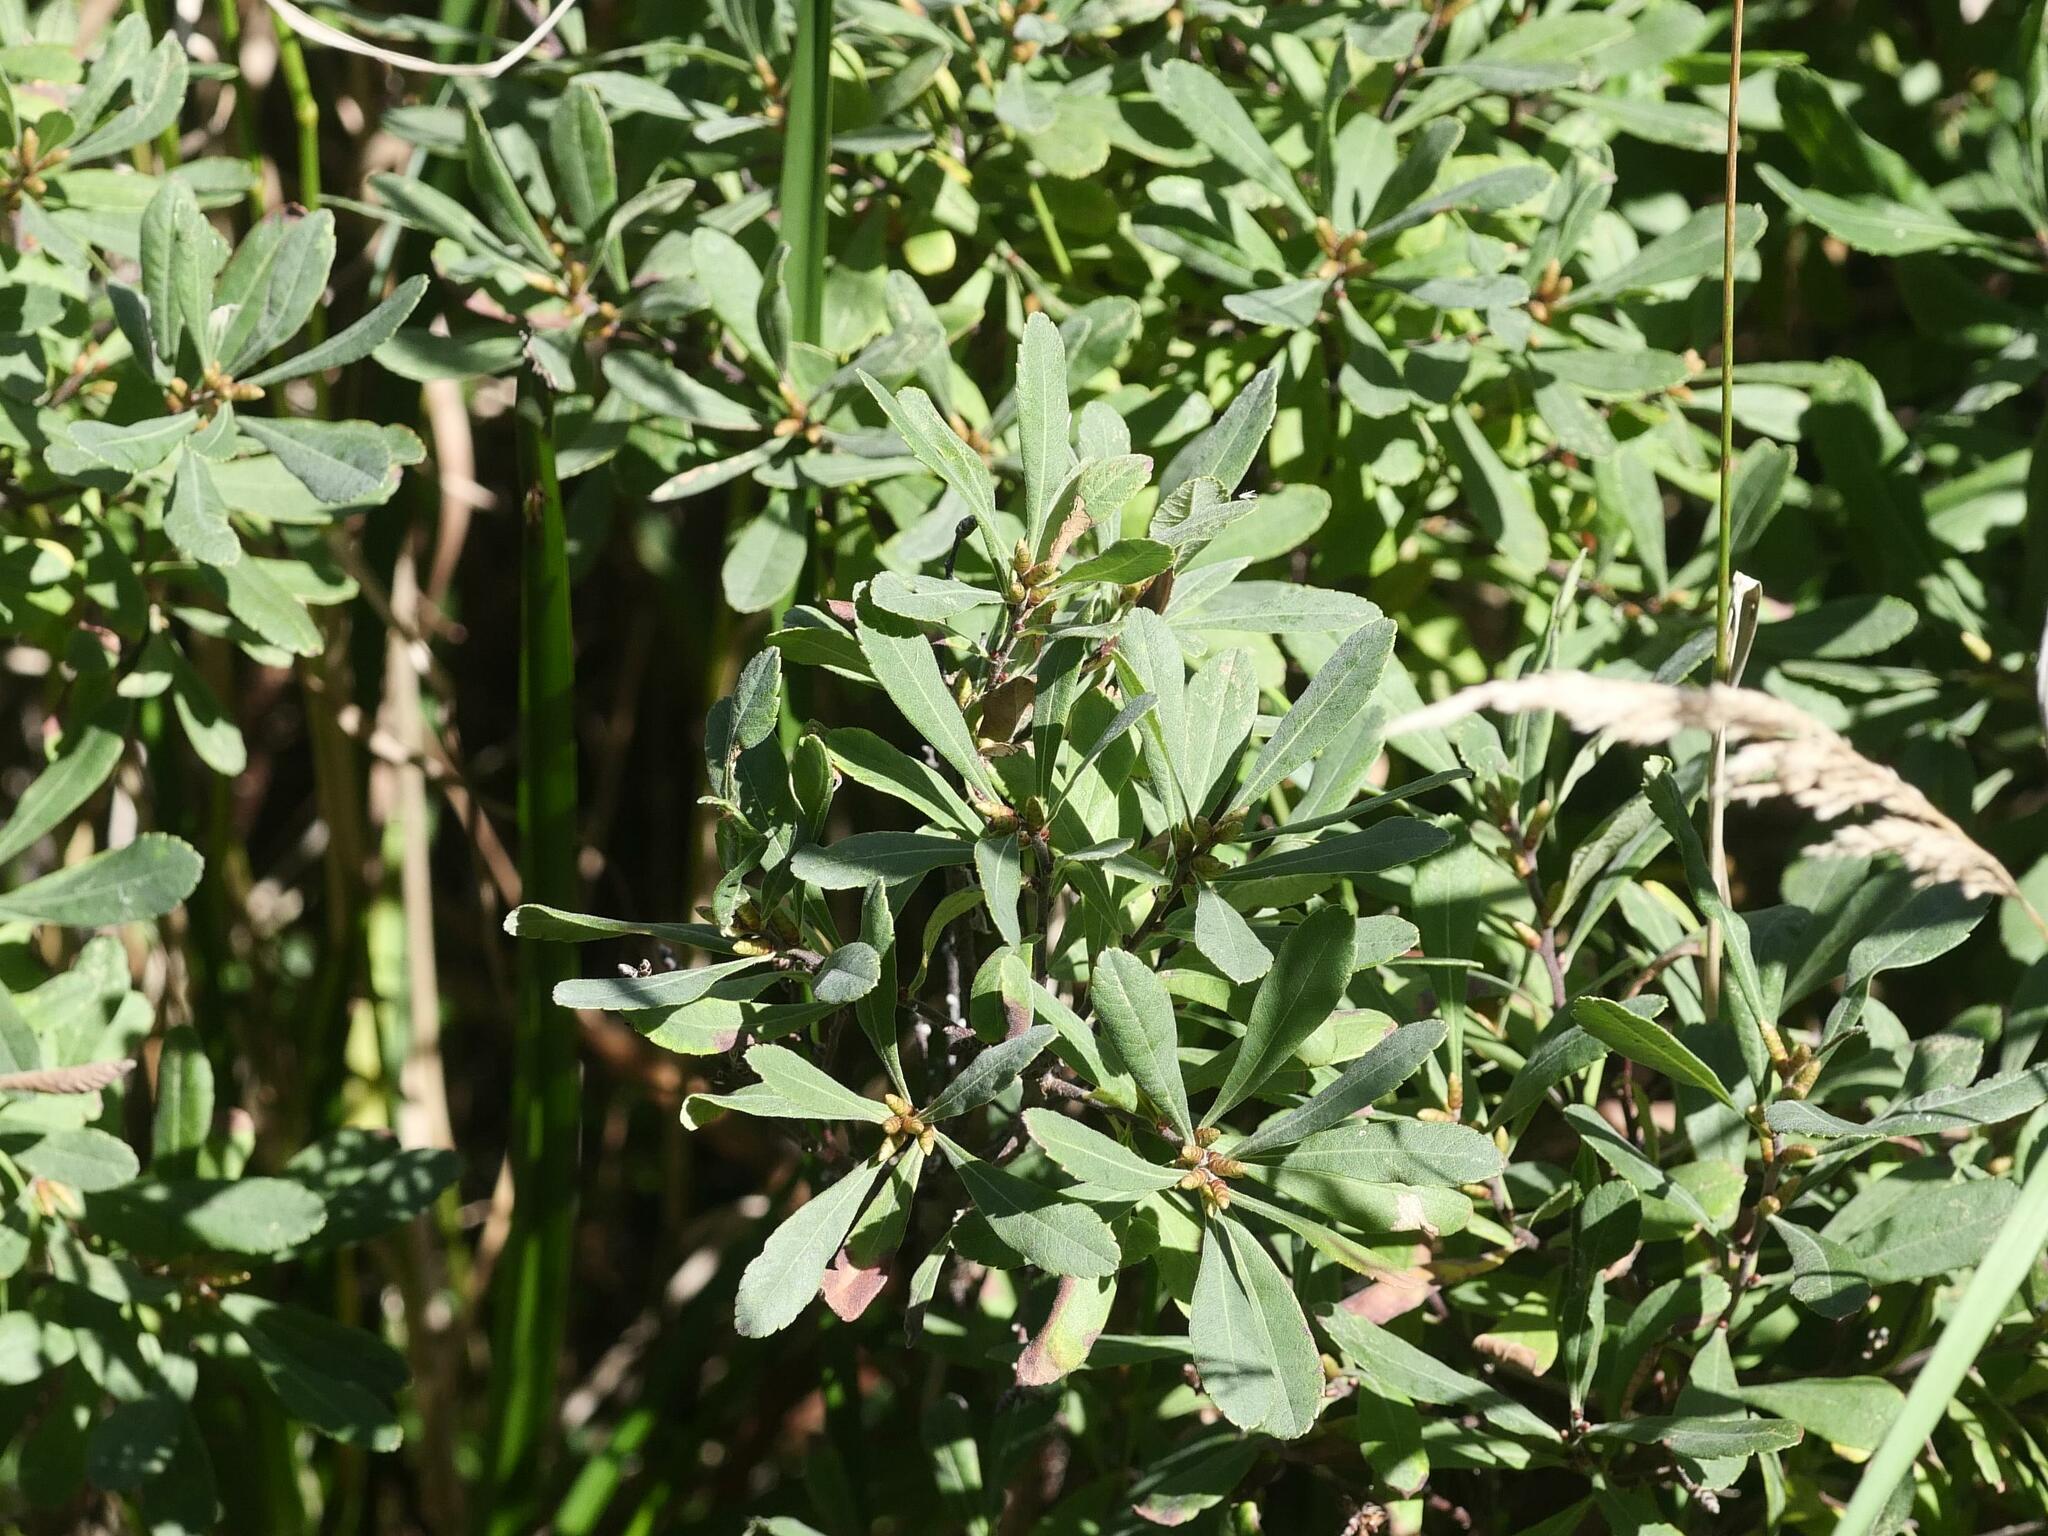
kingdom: Plantae
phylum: Tracheophyta
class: Magnoliopsida
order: Fagales
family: Myricaceae
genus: Myrica
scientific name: Myrica gale
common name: Sweet gale
